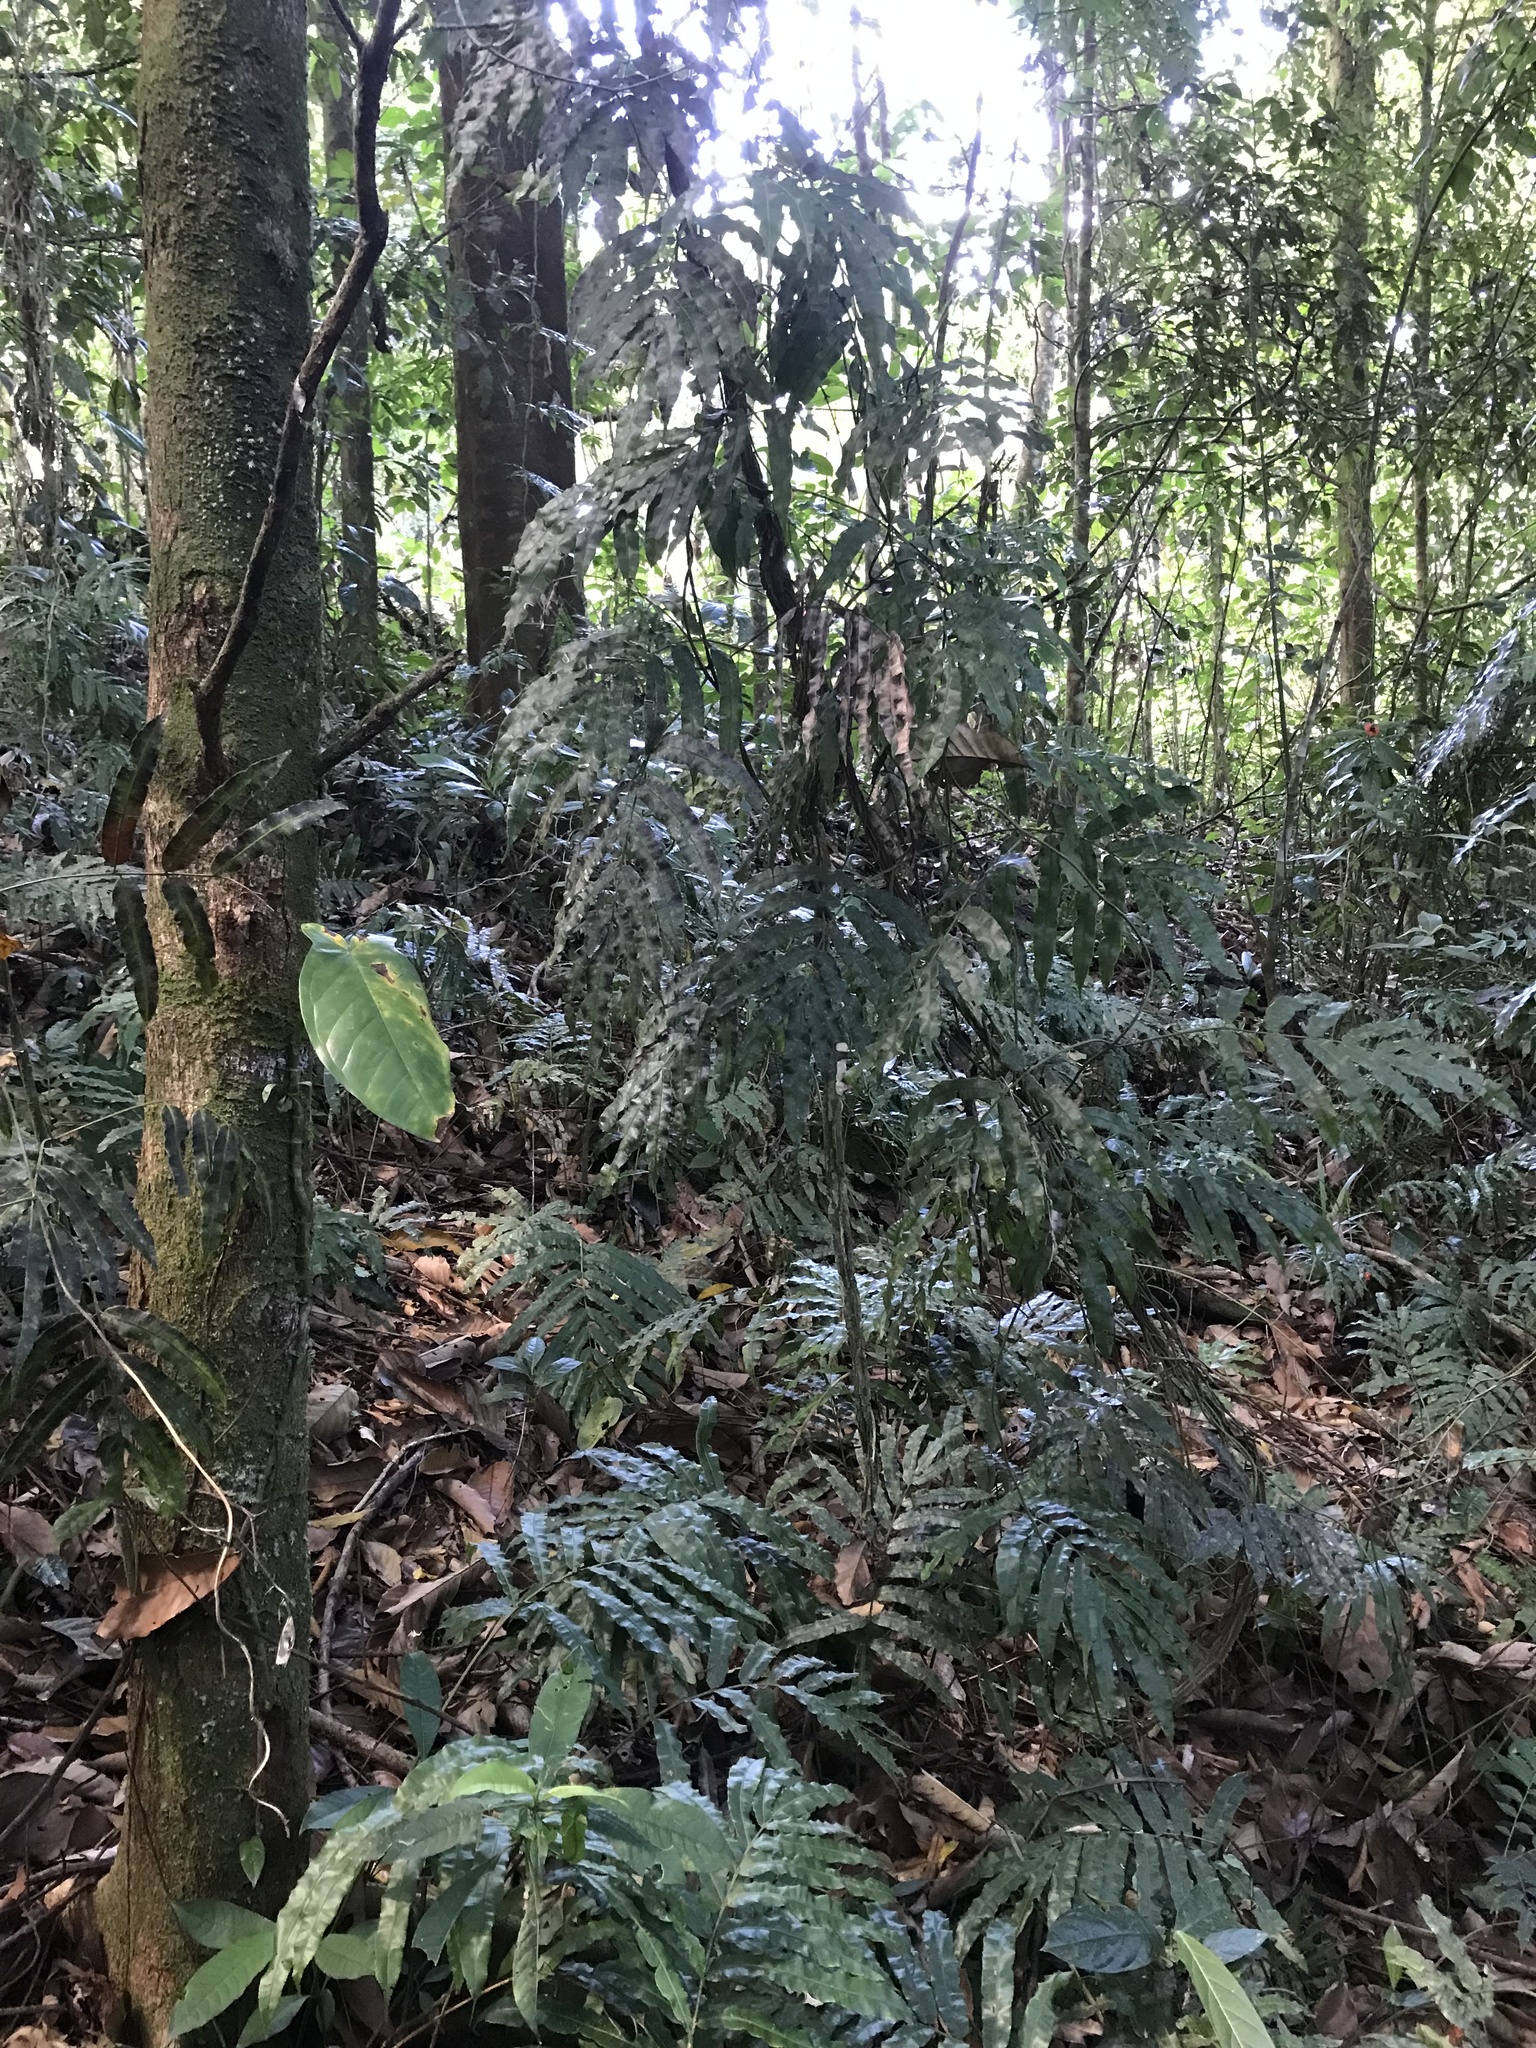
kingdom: Plantae
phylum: Tracheophyta
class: Polypodiopsida
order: Polypodiales
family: Blechnaceae
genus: Salpichlaena
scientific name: Salpichlaena papyrus
